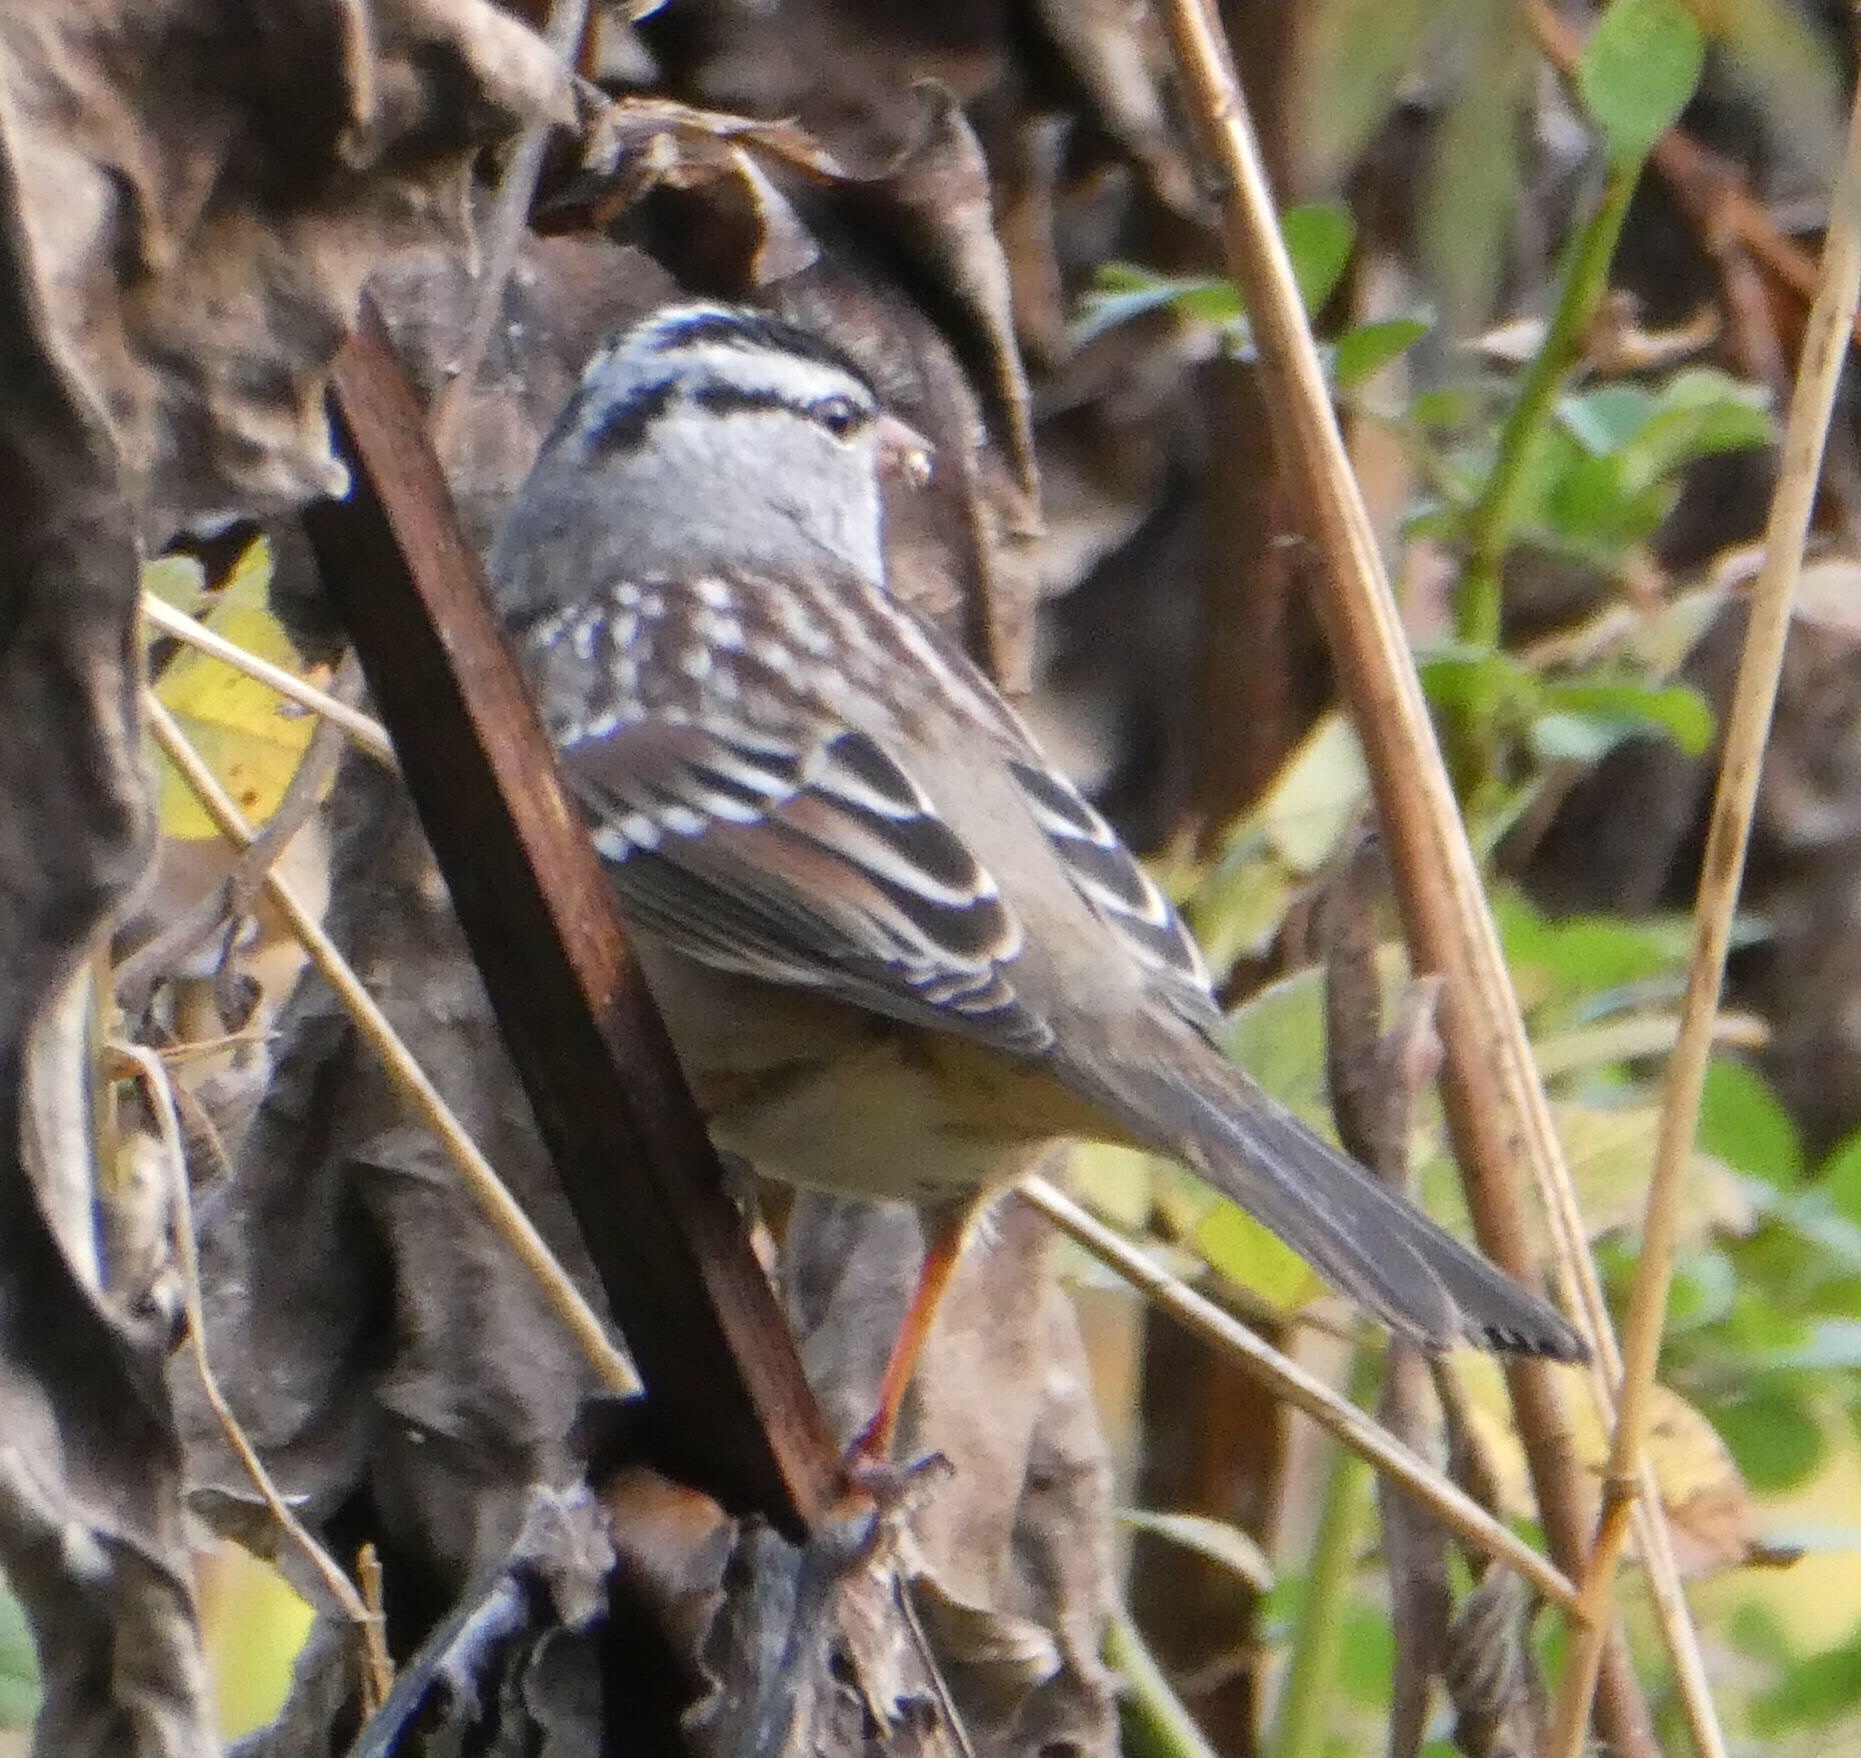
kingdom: Animalia
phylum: Chordata
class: Aves
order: Passeriformes
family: Passerellidae
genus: Zonotrichia
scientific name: Zonotrichia leucophrys
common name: White-crowned sparrow
